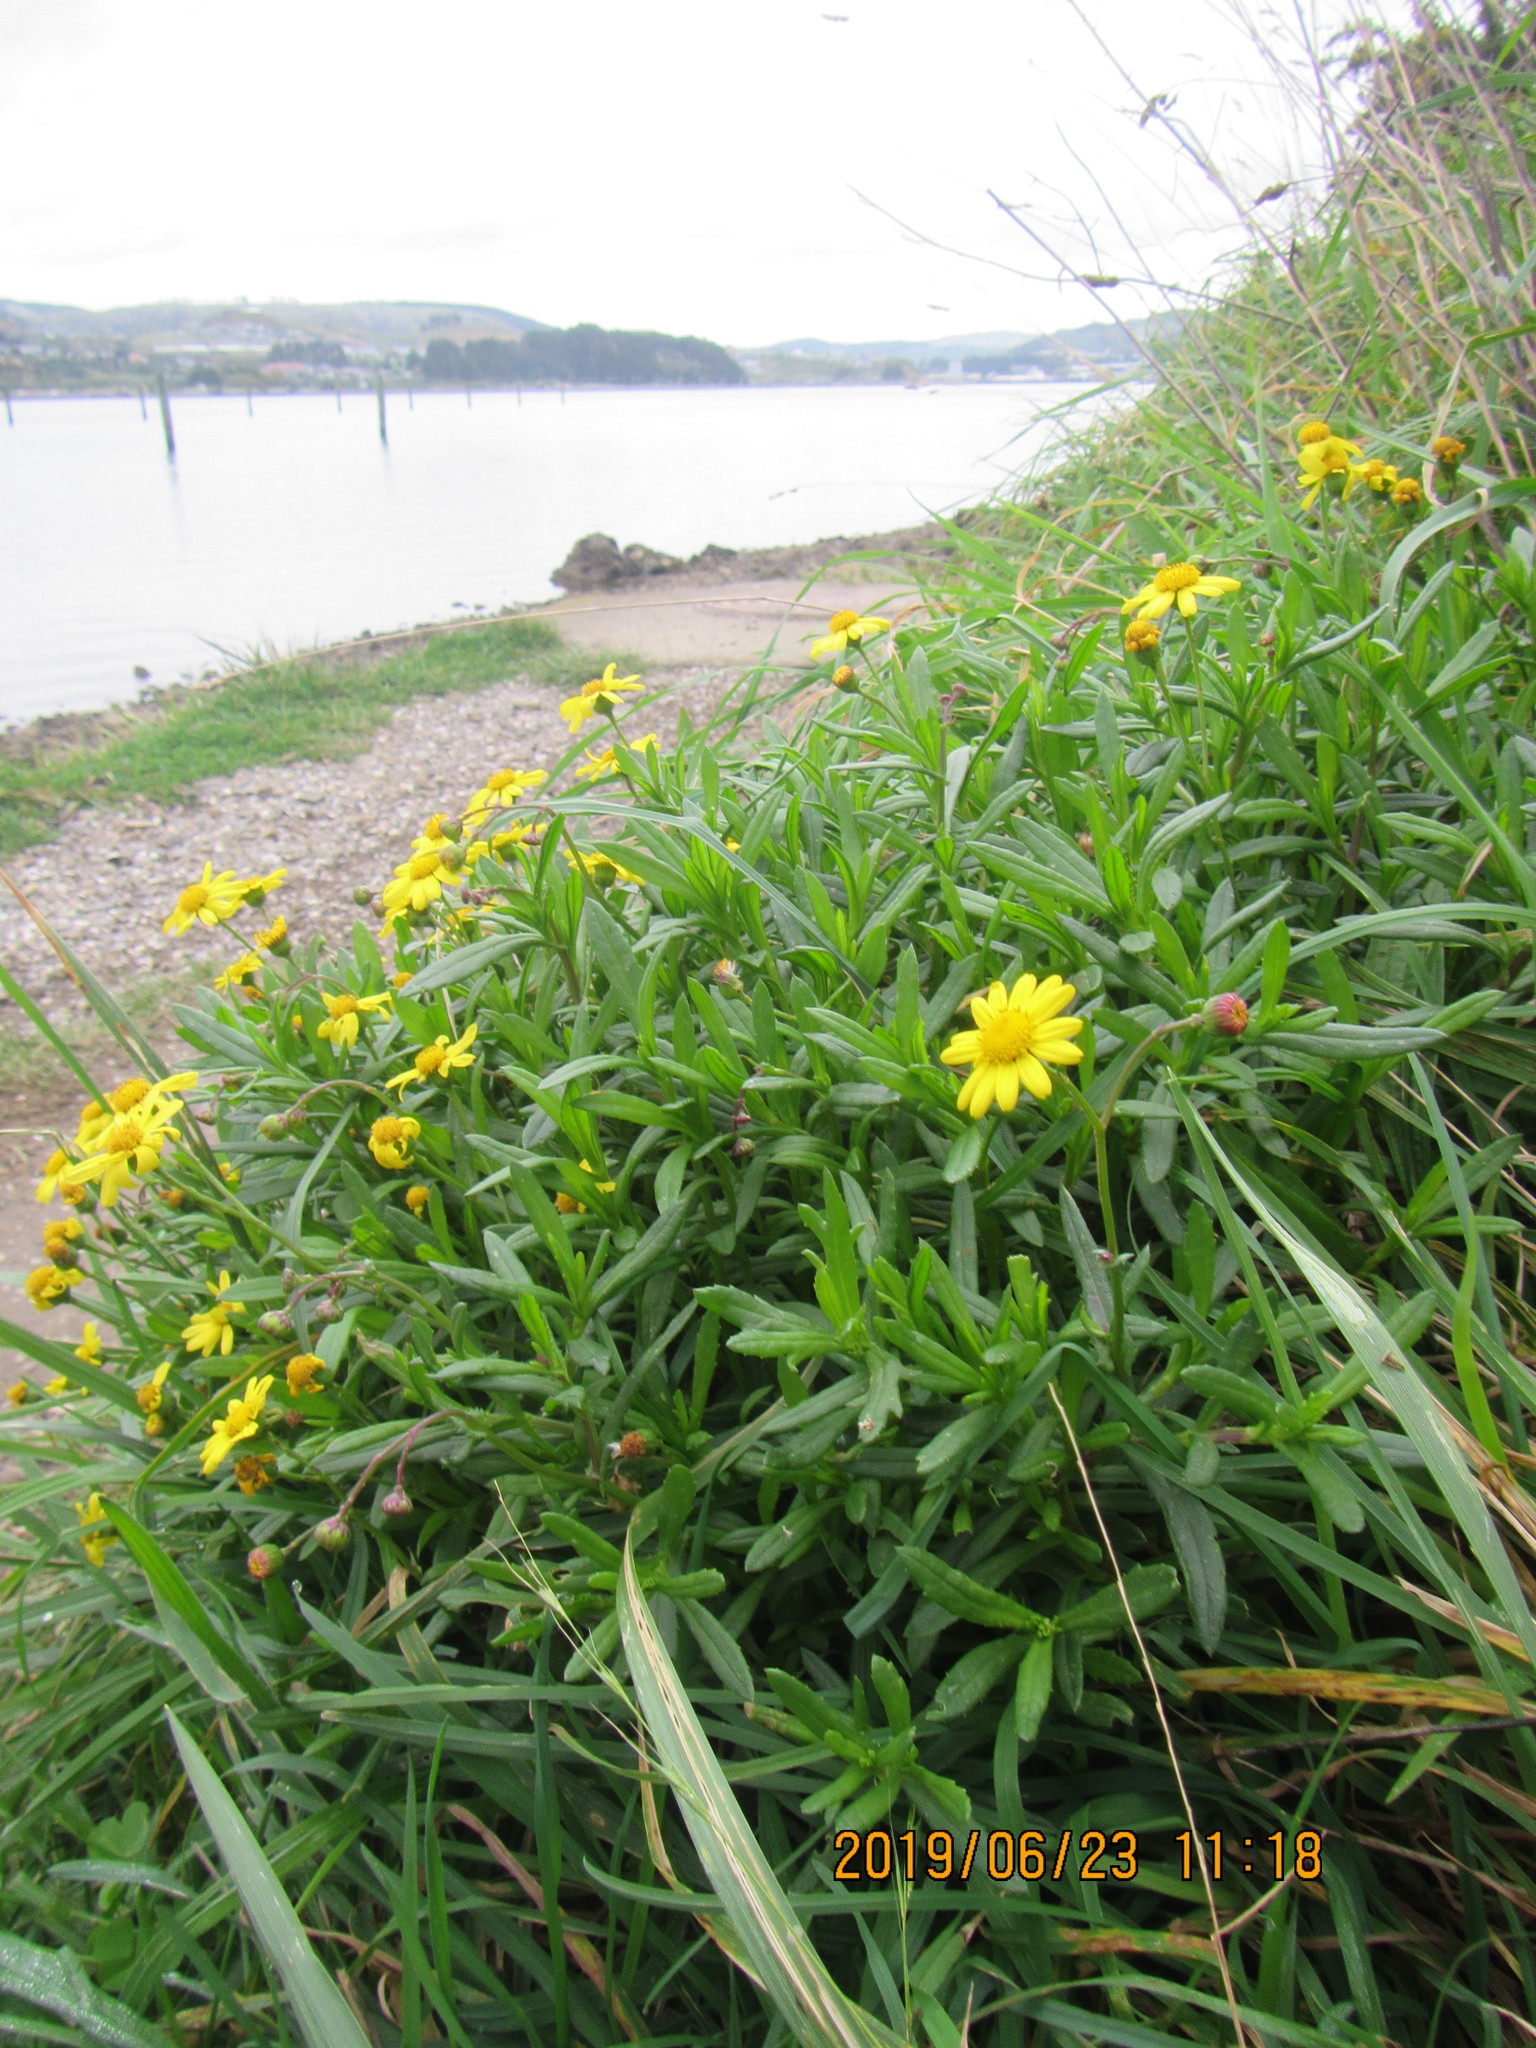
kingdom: Plantae
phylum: Tracheophyta
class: Magnoliopsida
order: Asterales
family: Asteraceae
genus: Senecio
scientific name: Senecio skirrhodon
